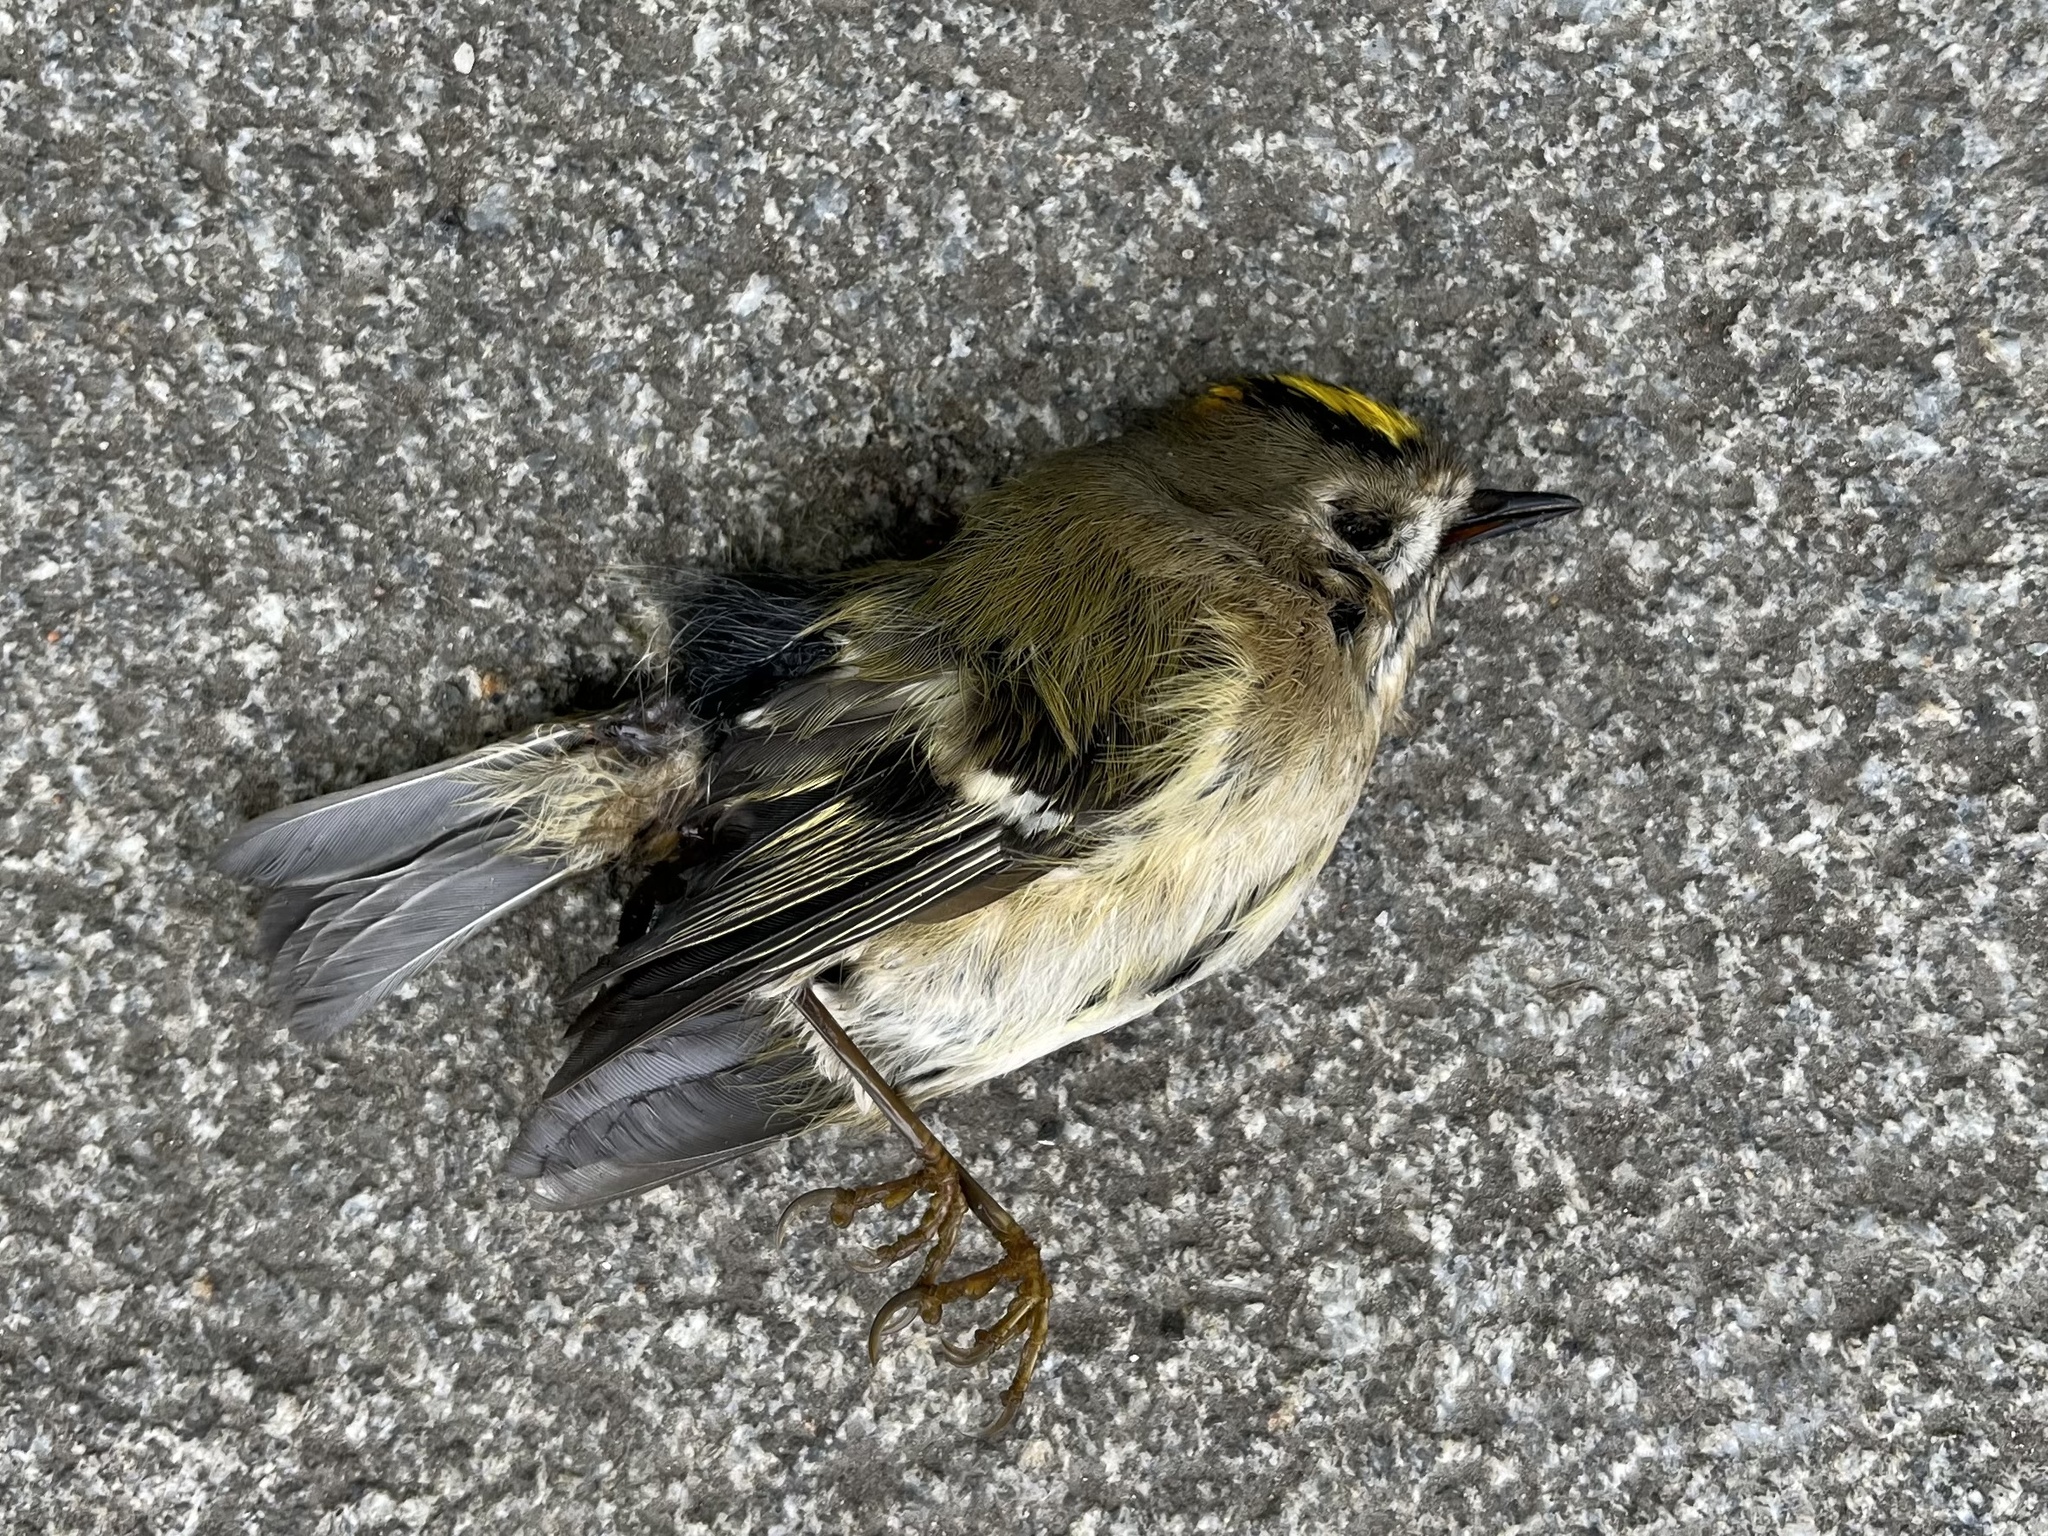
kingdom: Animalia
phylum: Chordata
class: Aves
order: Passeriformes
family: Regulidae
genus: Regulus
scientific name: Regulus regulus
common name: Goldcrest
